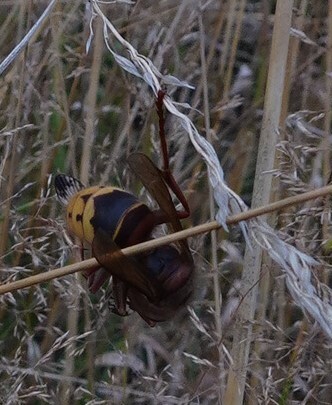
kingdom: Animalia
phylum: Arthropoda
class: Insecta
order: Hymenoptera
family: Vespidae
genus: Vespa
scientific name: Vespa crabro
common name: Hornet
